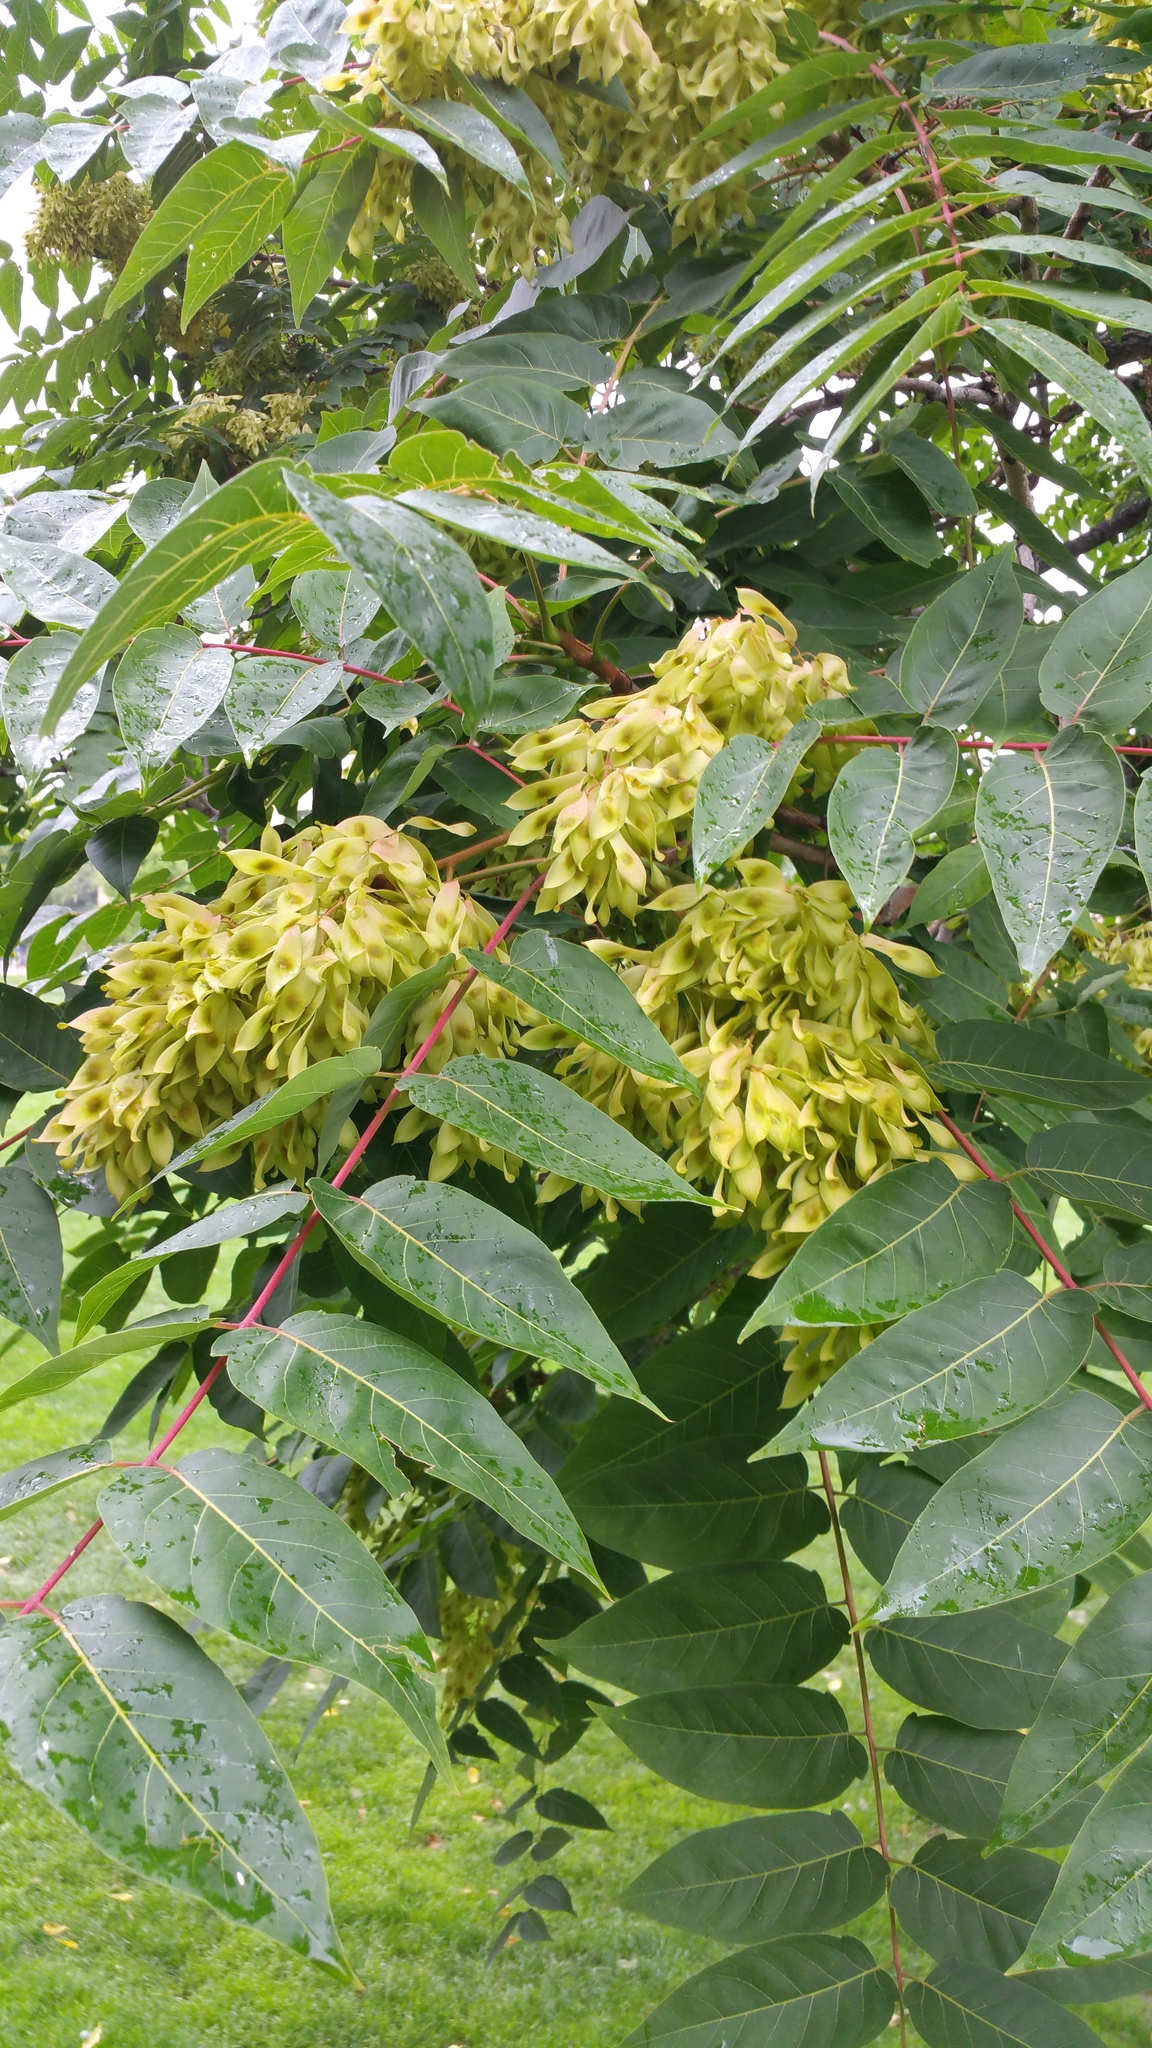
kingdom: Plantae
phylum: Tracheophyta
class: Magnoliopsida
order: Sapindales
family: Simaroubaceae
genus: Ailanthus
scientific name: Ailanthus altissima
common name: Tree-of-heaven
